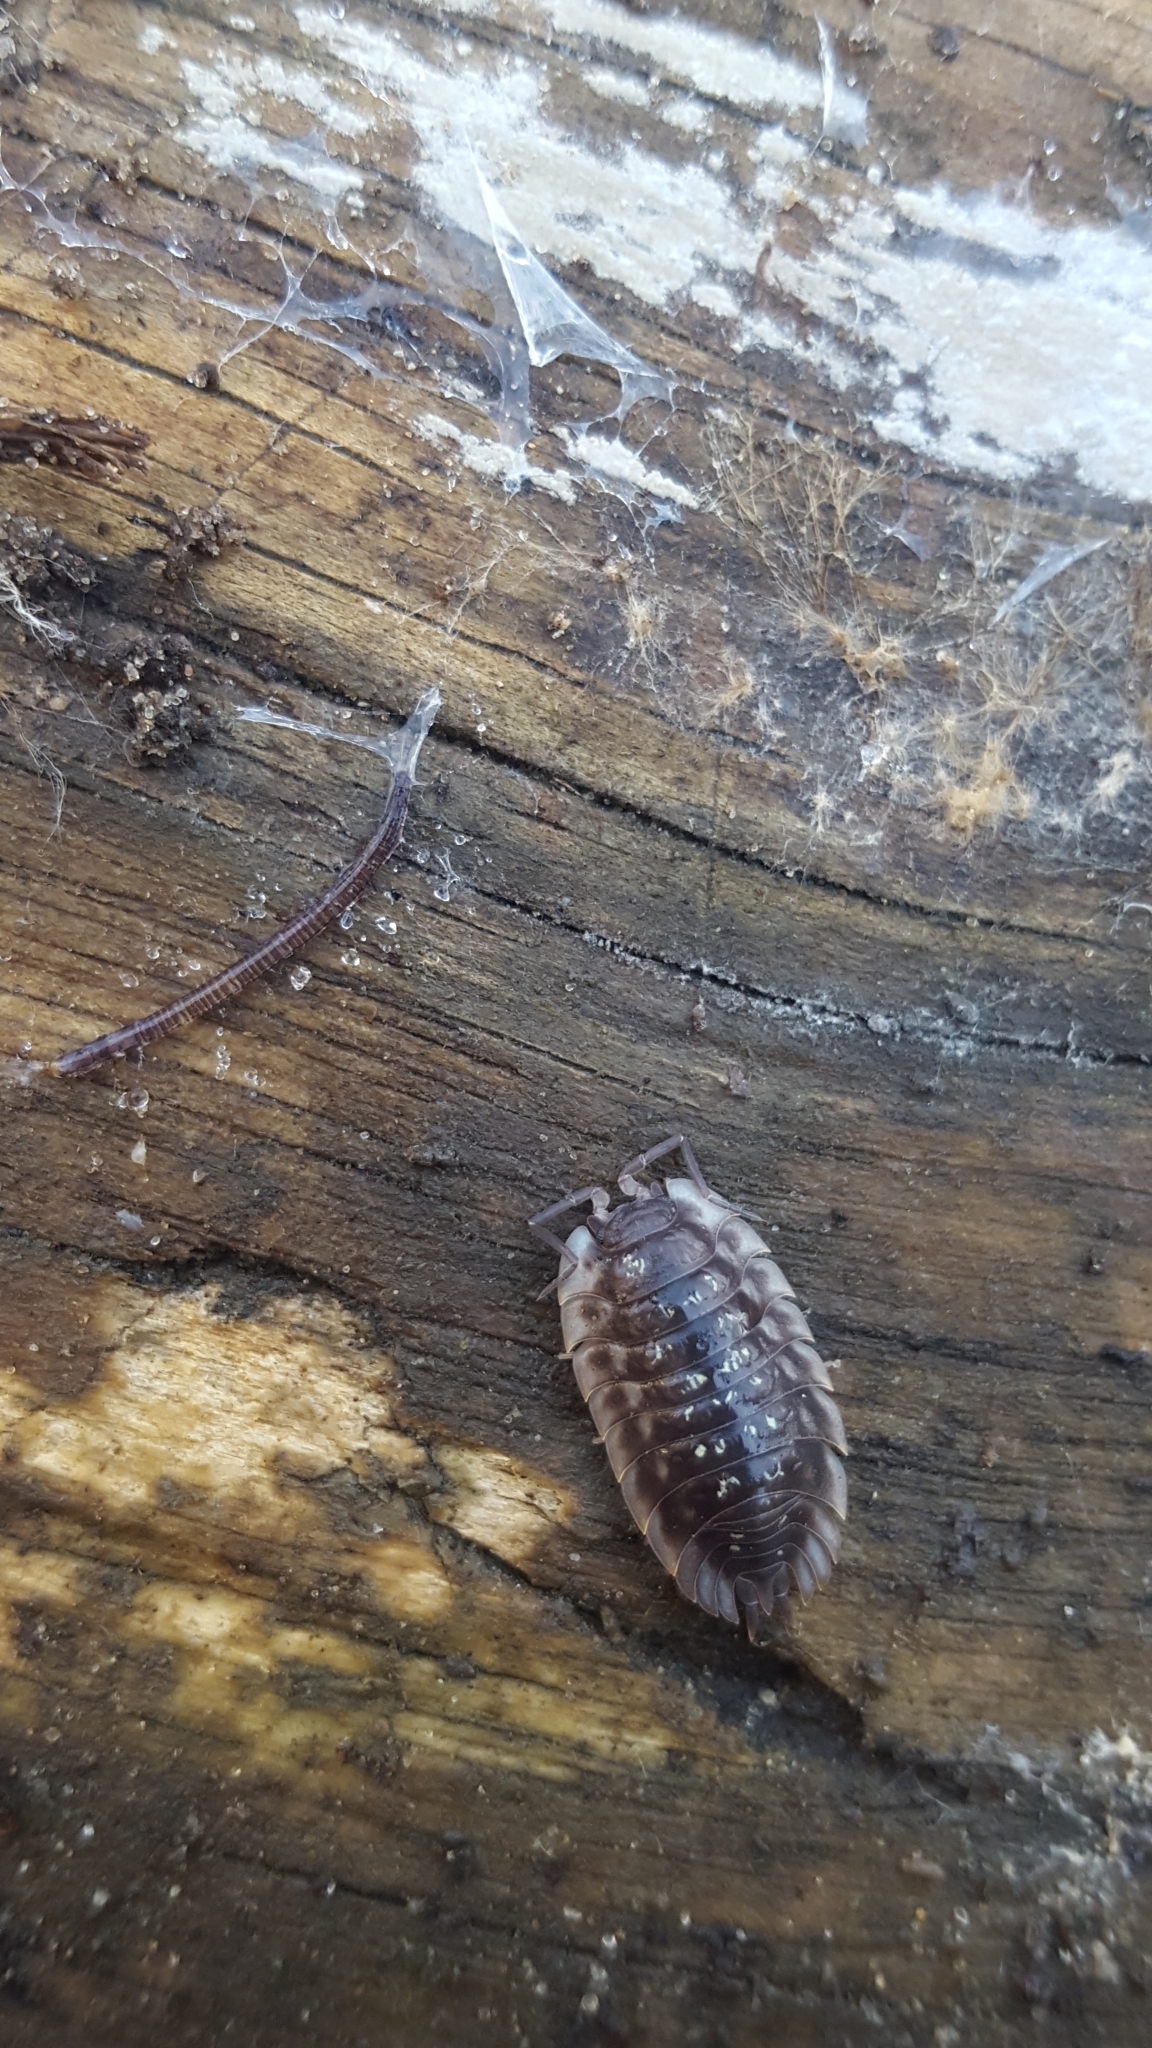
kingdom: Animalia
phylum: Arthropoda
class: Malacostraca
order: Isopoda
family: Oniscidae
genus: Oniscus
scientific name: Oniscus asellus
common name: Common shiny woodlouse
